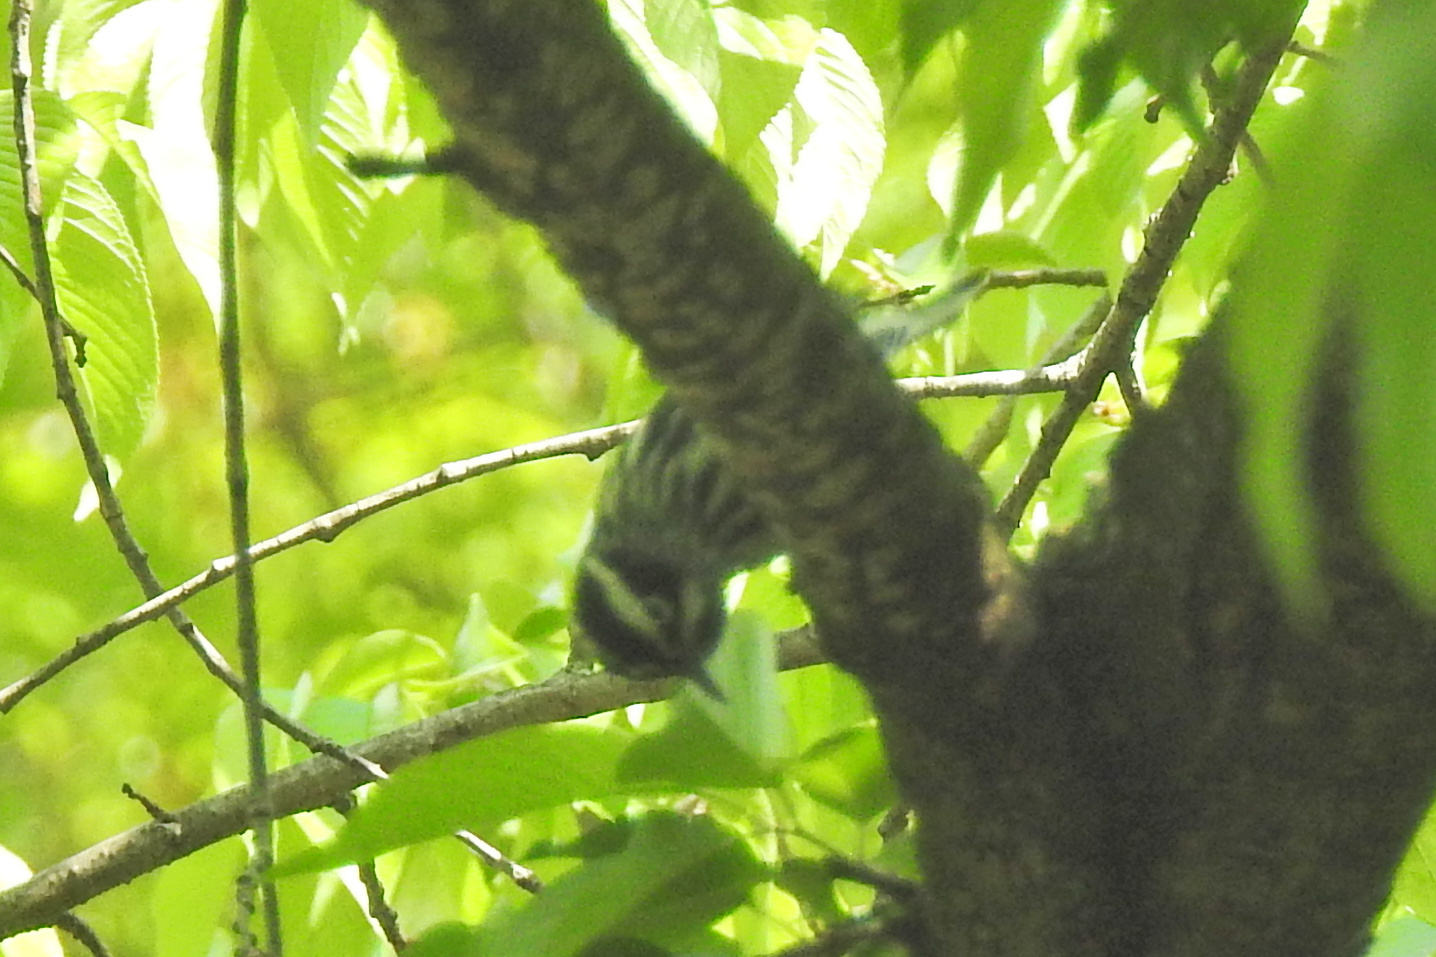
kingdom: Animalia
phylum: Chordata
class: Aves
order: Passeriformes
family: Parulidae
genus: Mniotilta
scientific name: Mniotilta varia
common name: Black-and-white warbler
